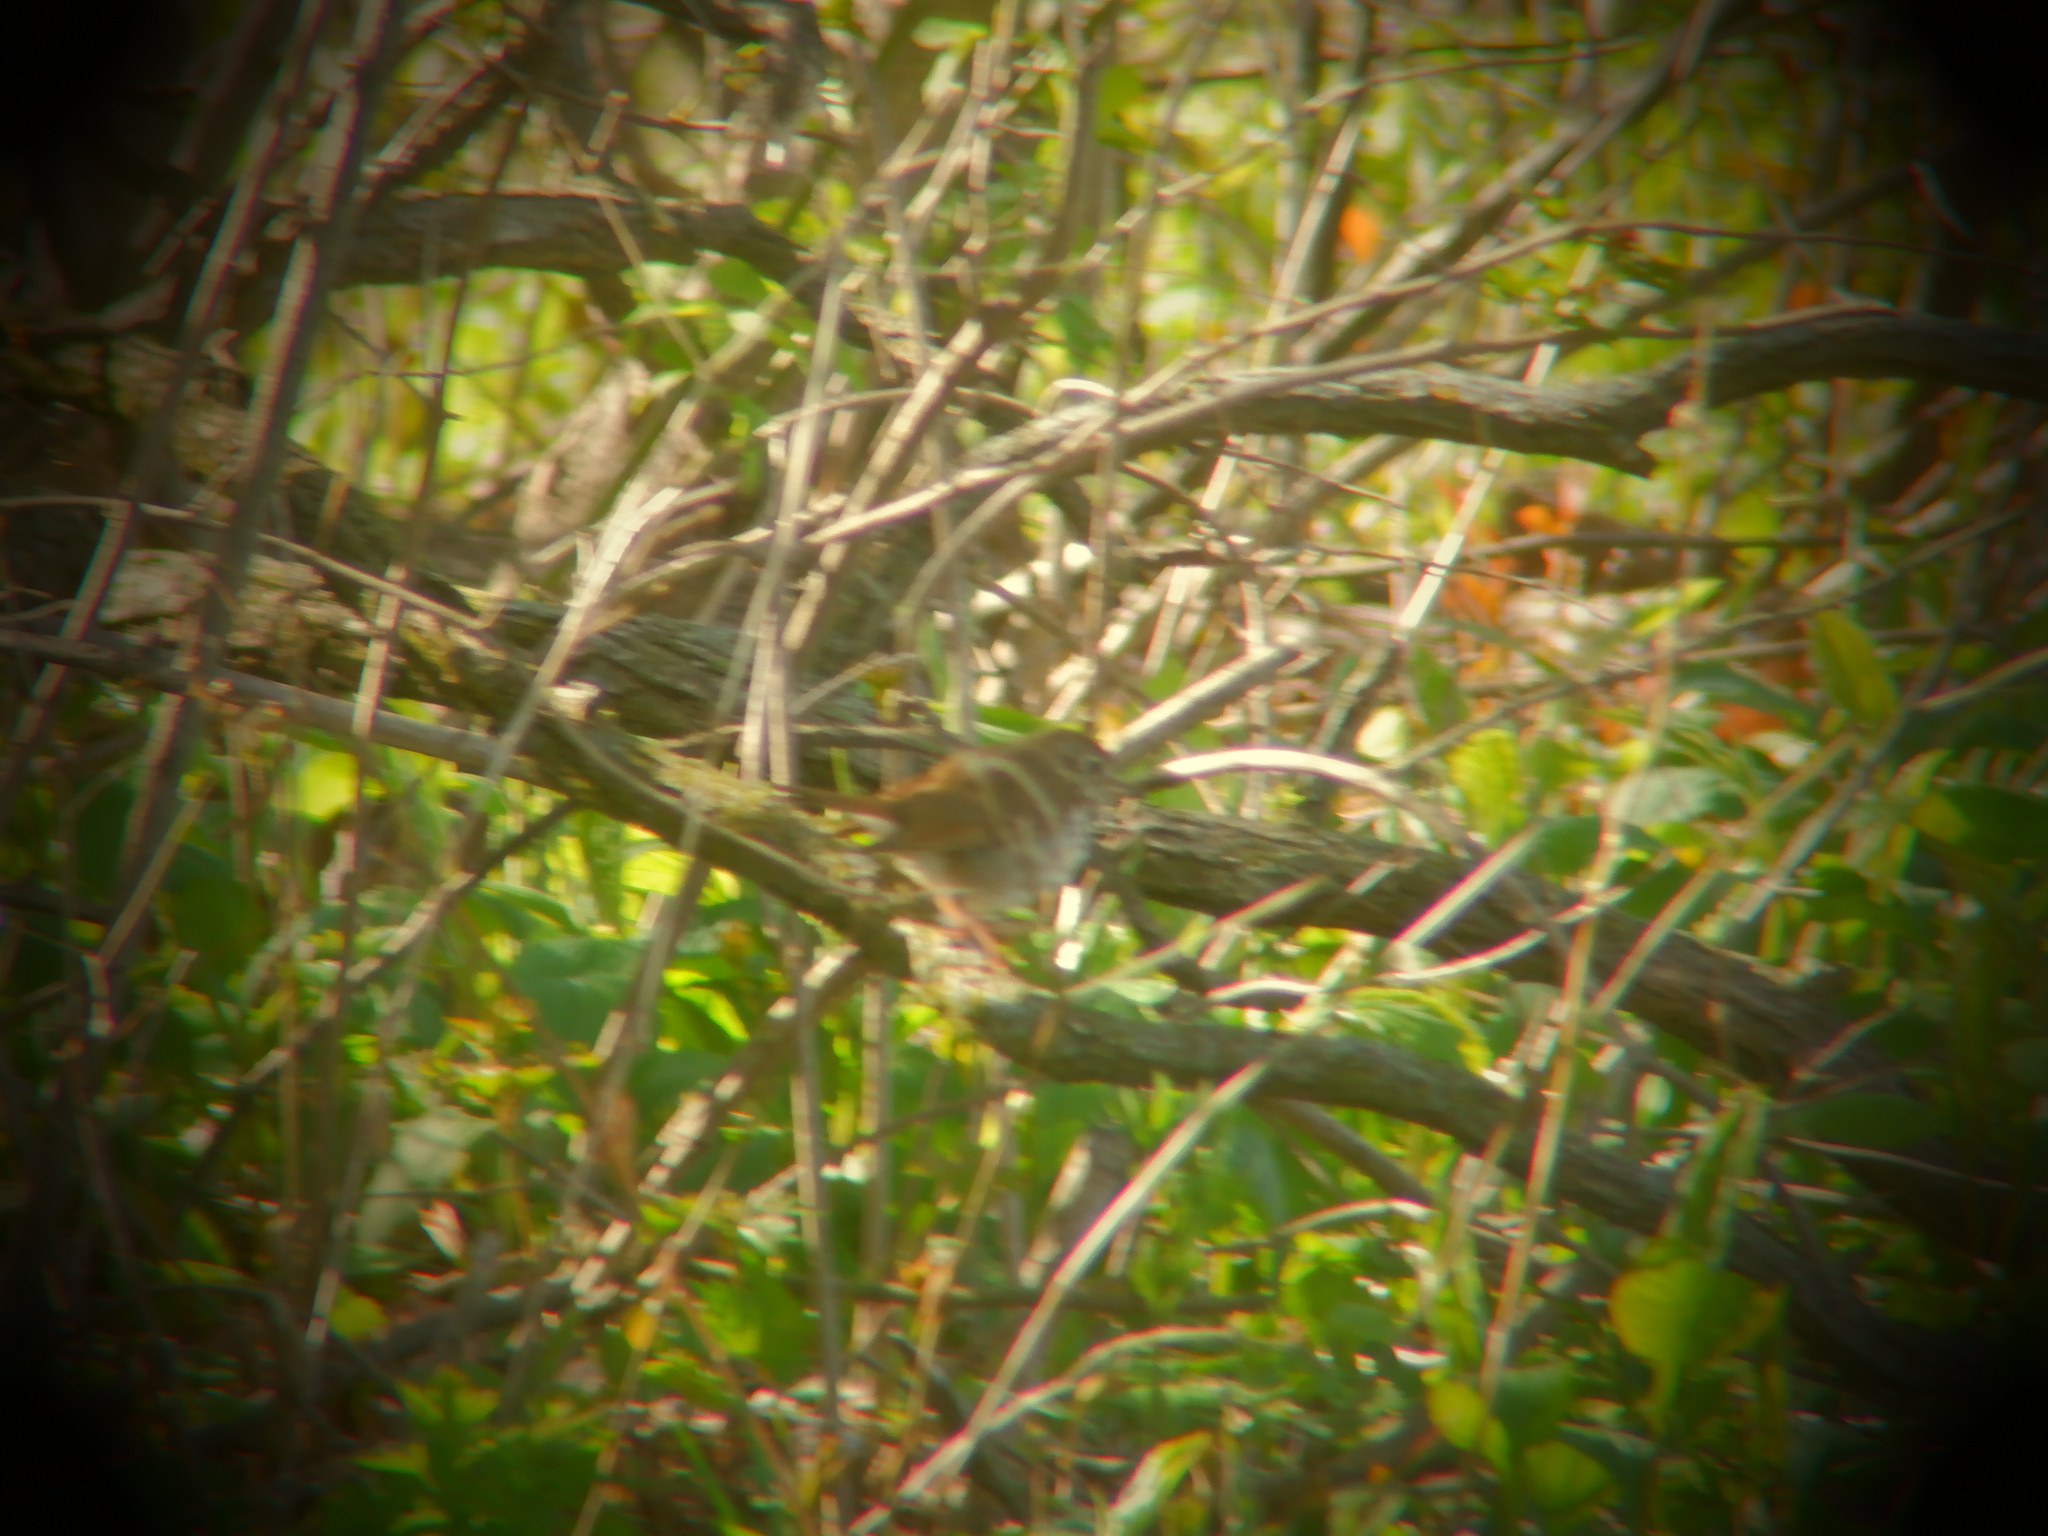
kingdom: Animalia
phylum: Chordata
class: Aves
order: Passeriformes
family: Turdidae
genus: Catharus
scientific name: Catharus guttatus
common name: Hermit thrush
